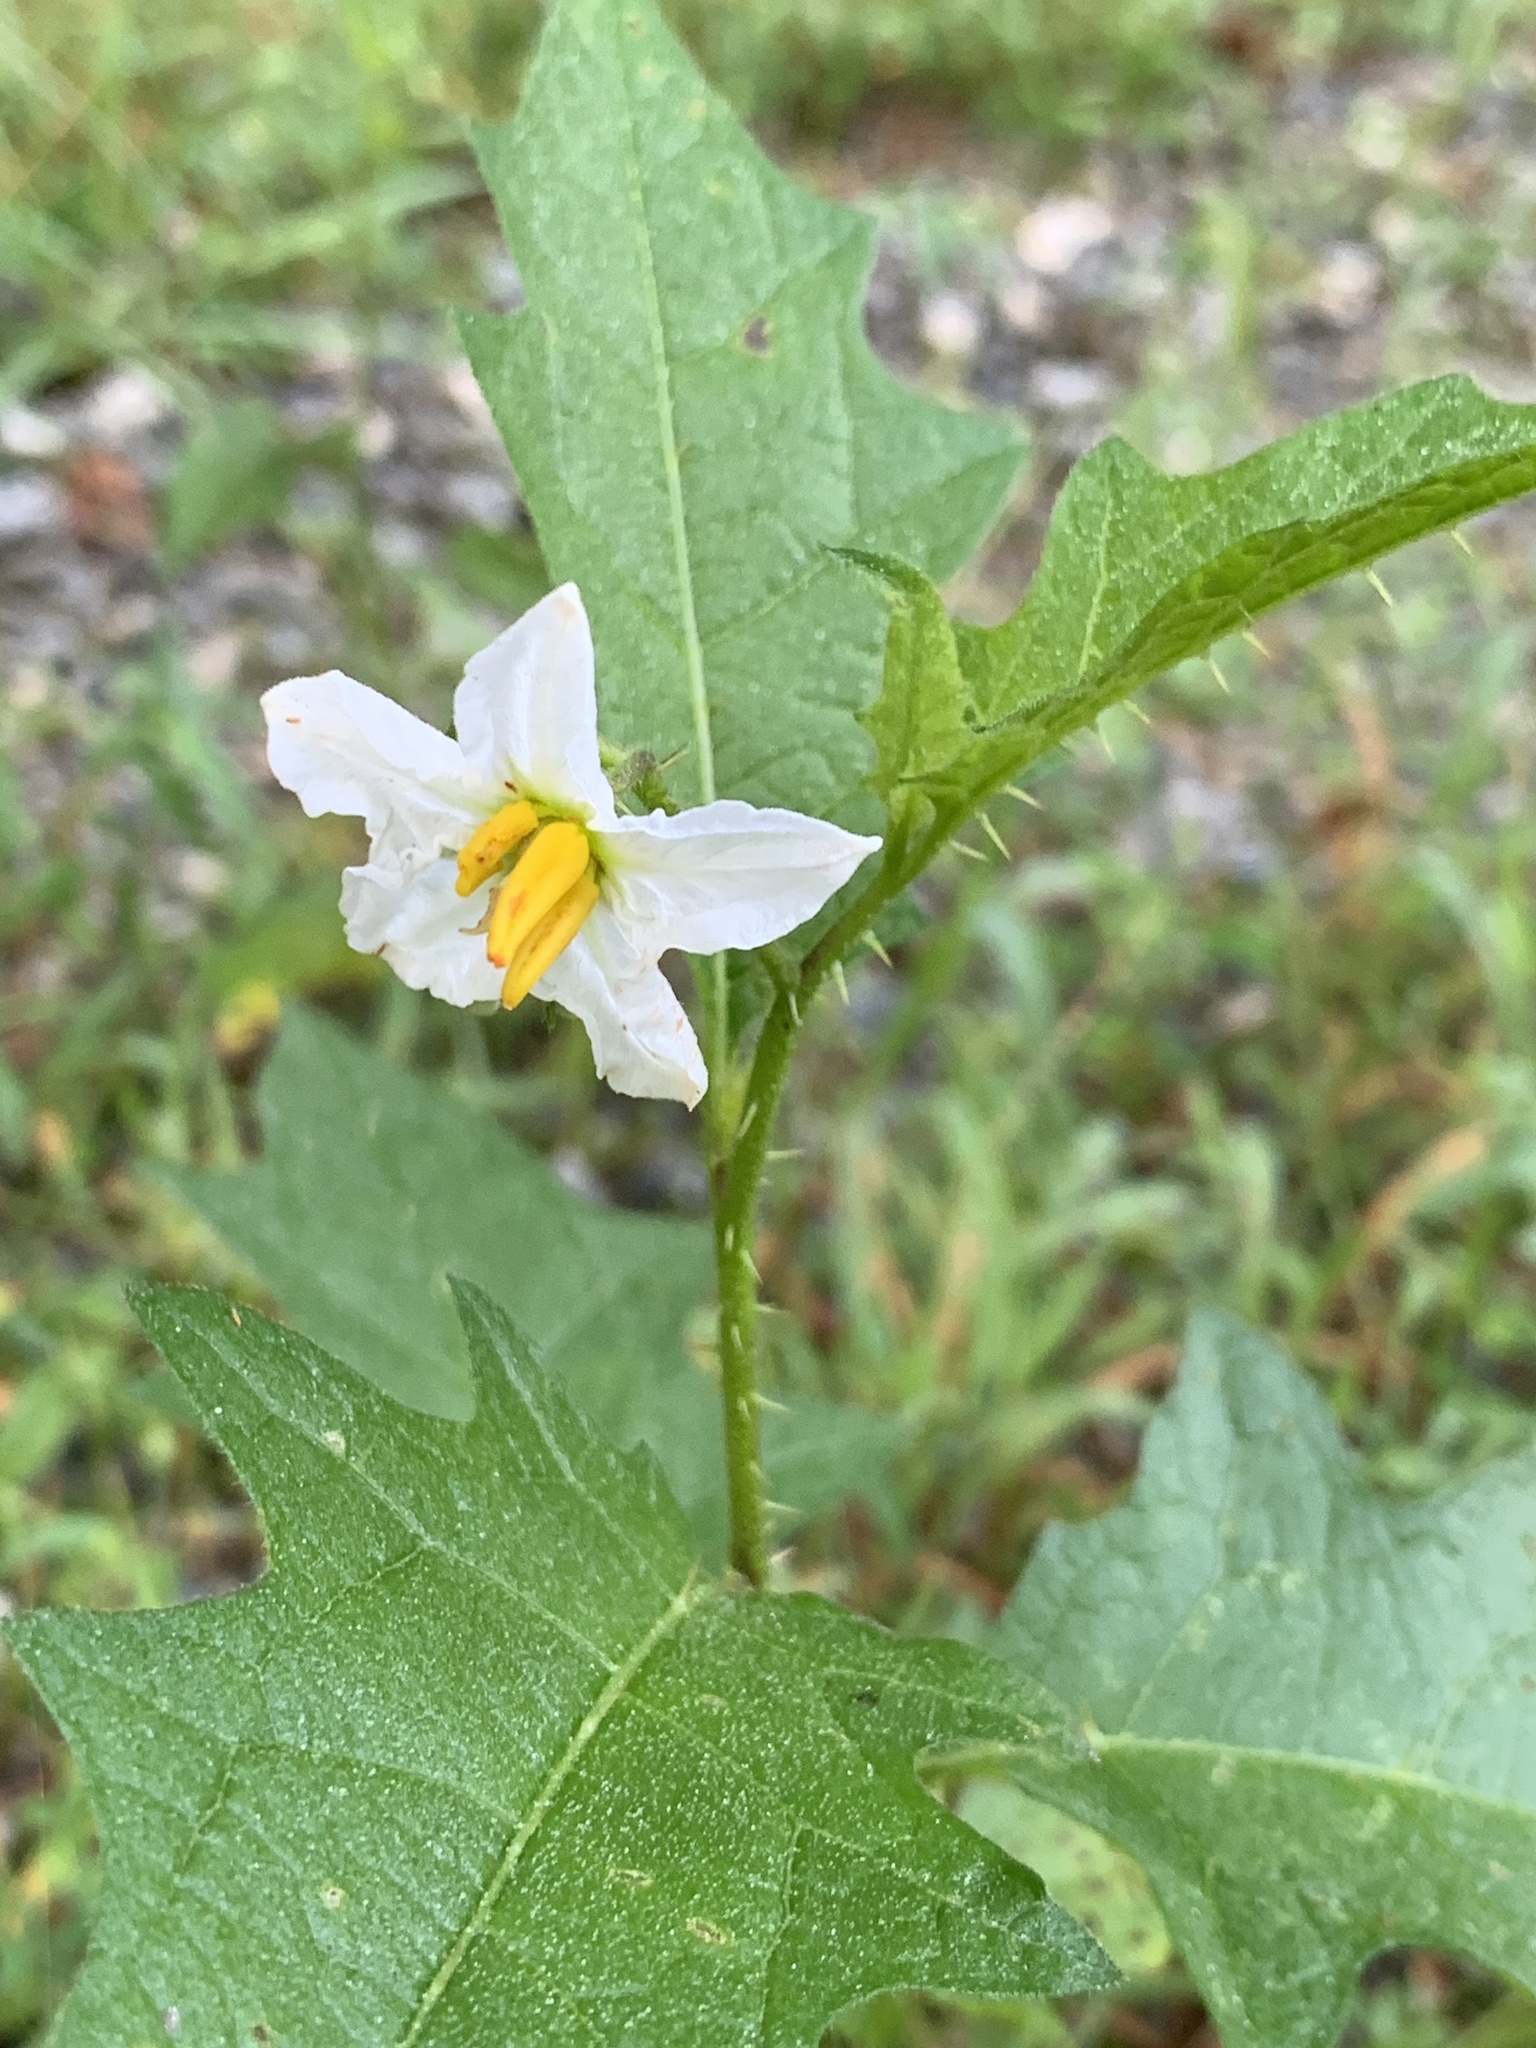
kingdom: Plantae
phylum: Tracheophyta
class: Magnoliopsida
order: Solanales
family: Solanaceae
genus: Solanum
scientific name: Solanum carolinense
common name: Horse-nettle
